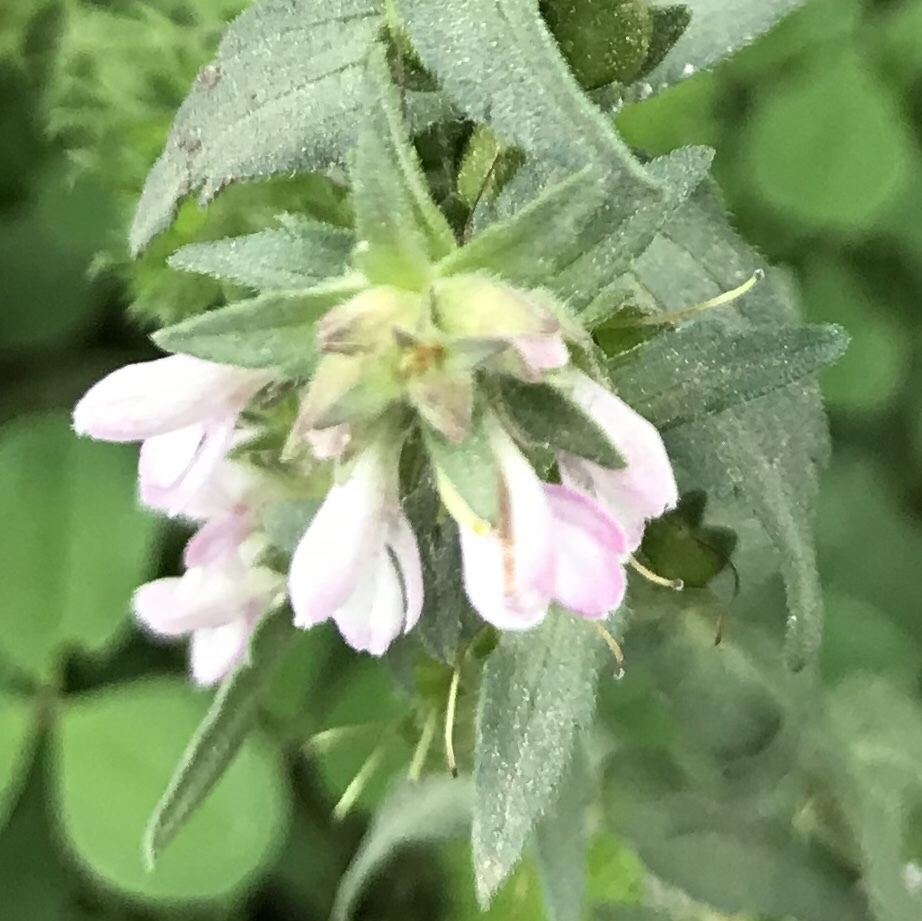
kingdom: Plantae
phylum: Tracheophyta
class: Magnoliopsida
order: Lamiales
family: Orobanchaceae
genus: Odontites
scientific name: Odontites vulgaris
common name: Broomrape
